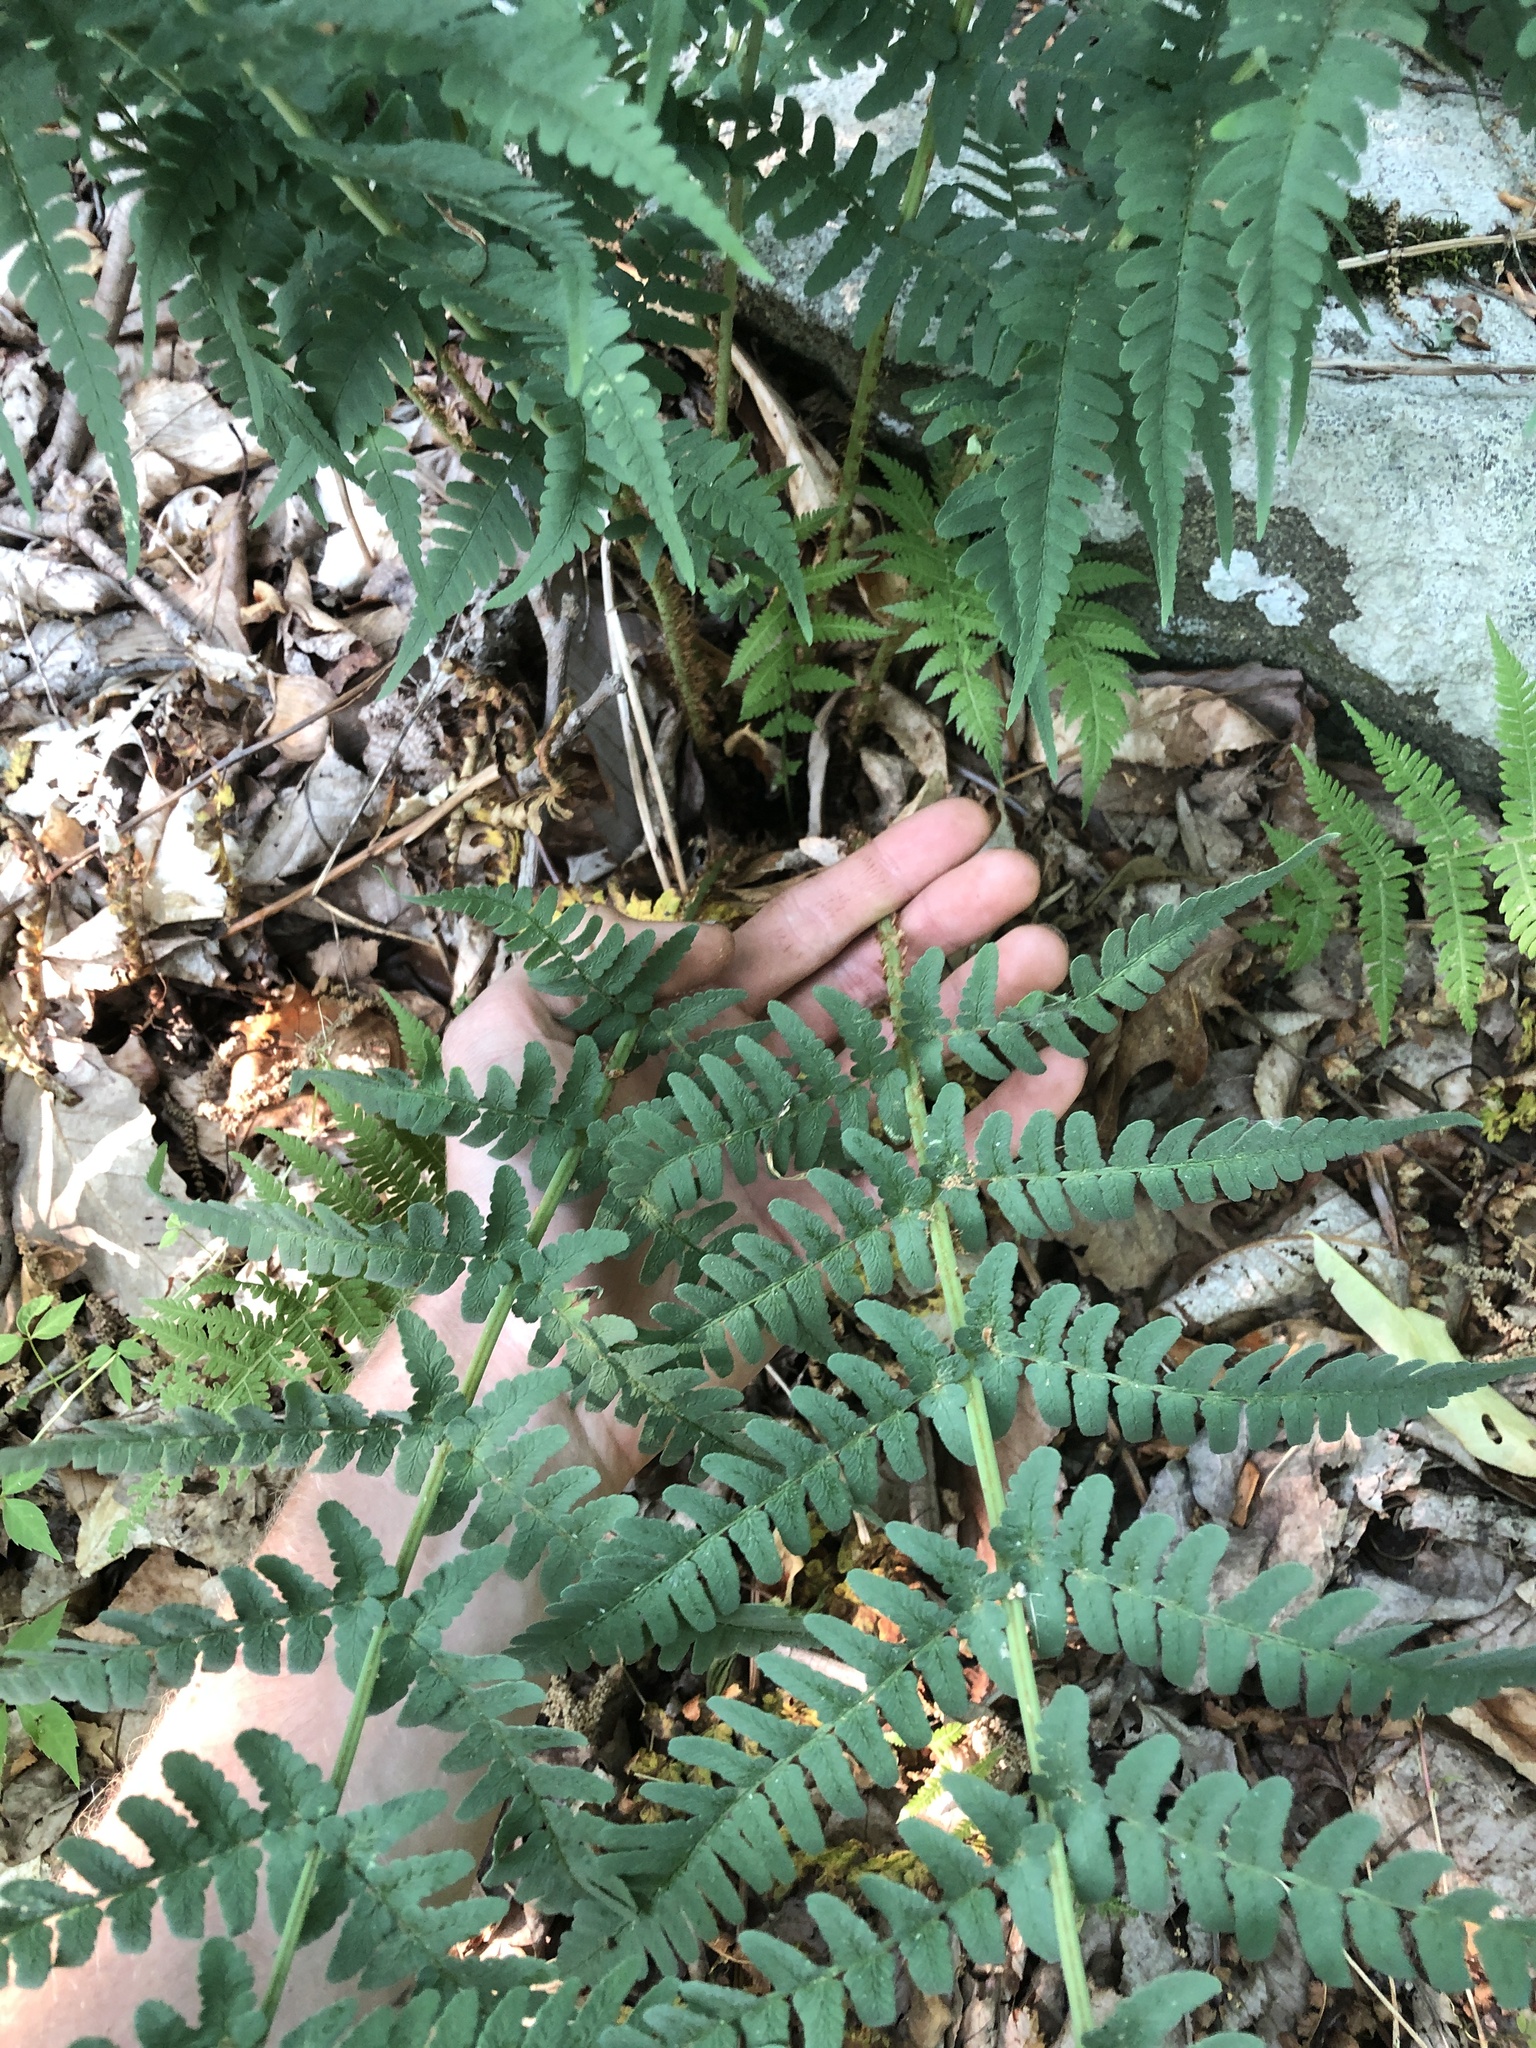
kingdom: Plantae
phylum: Tracheophyta
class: Polypodiopsida
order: Polypodiales
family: Dryopteridaceae
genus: Dryopteris
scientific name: Dryopteris marginalis
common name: Marginal wood fern
